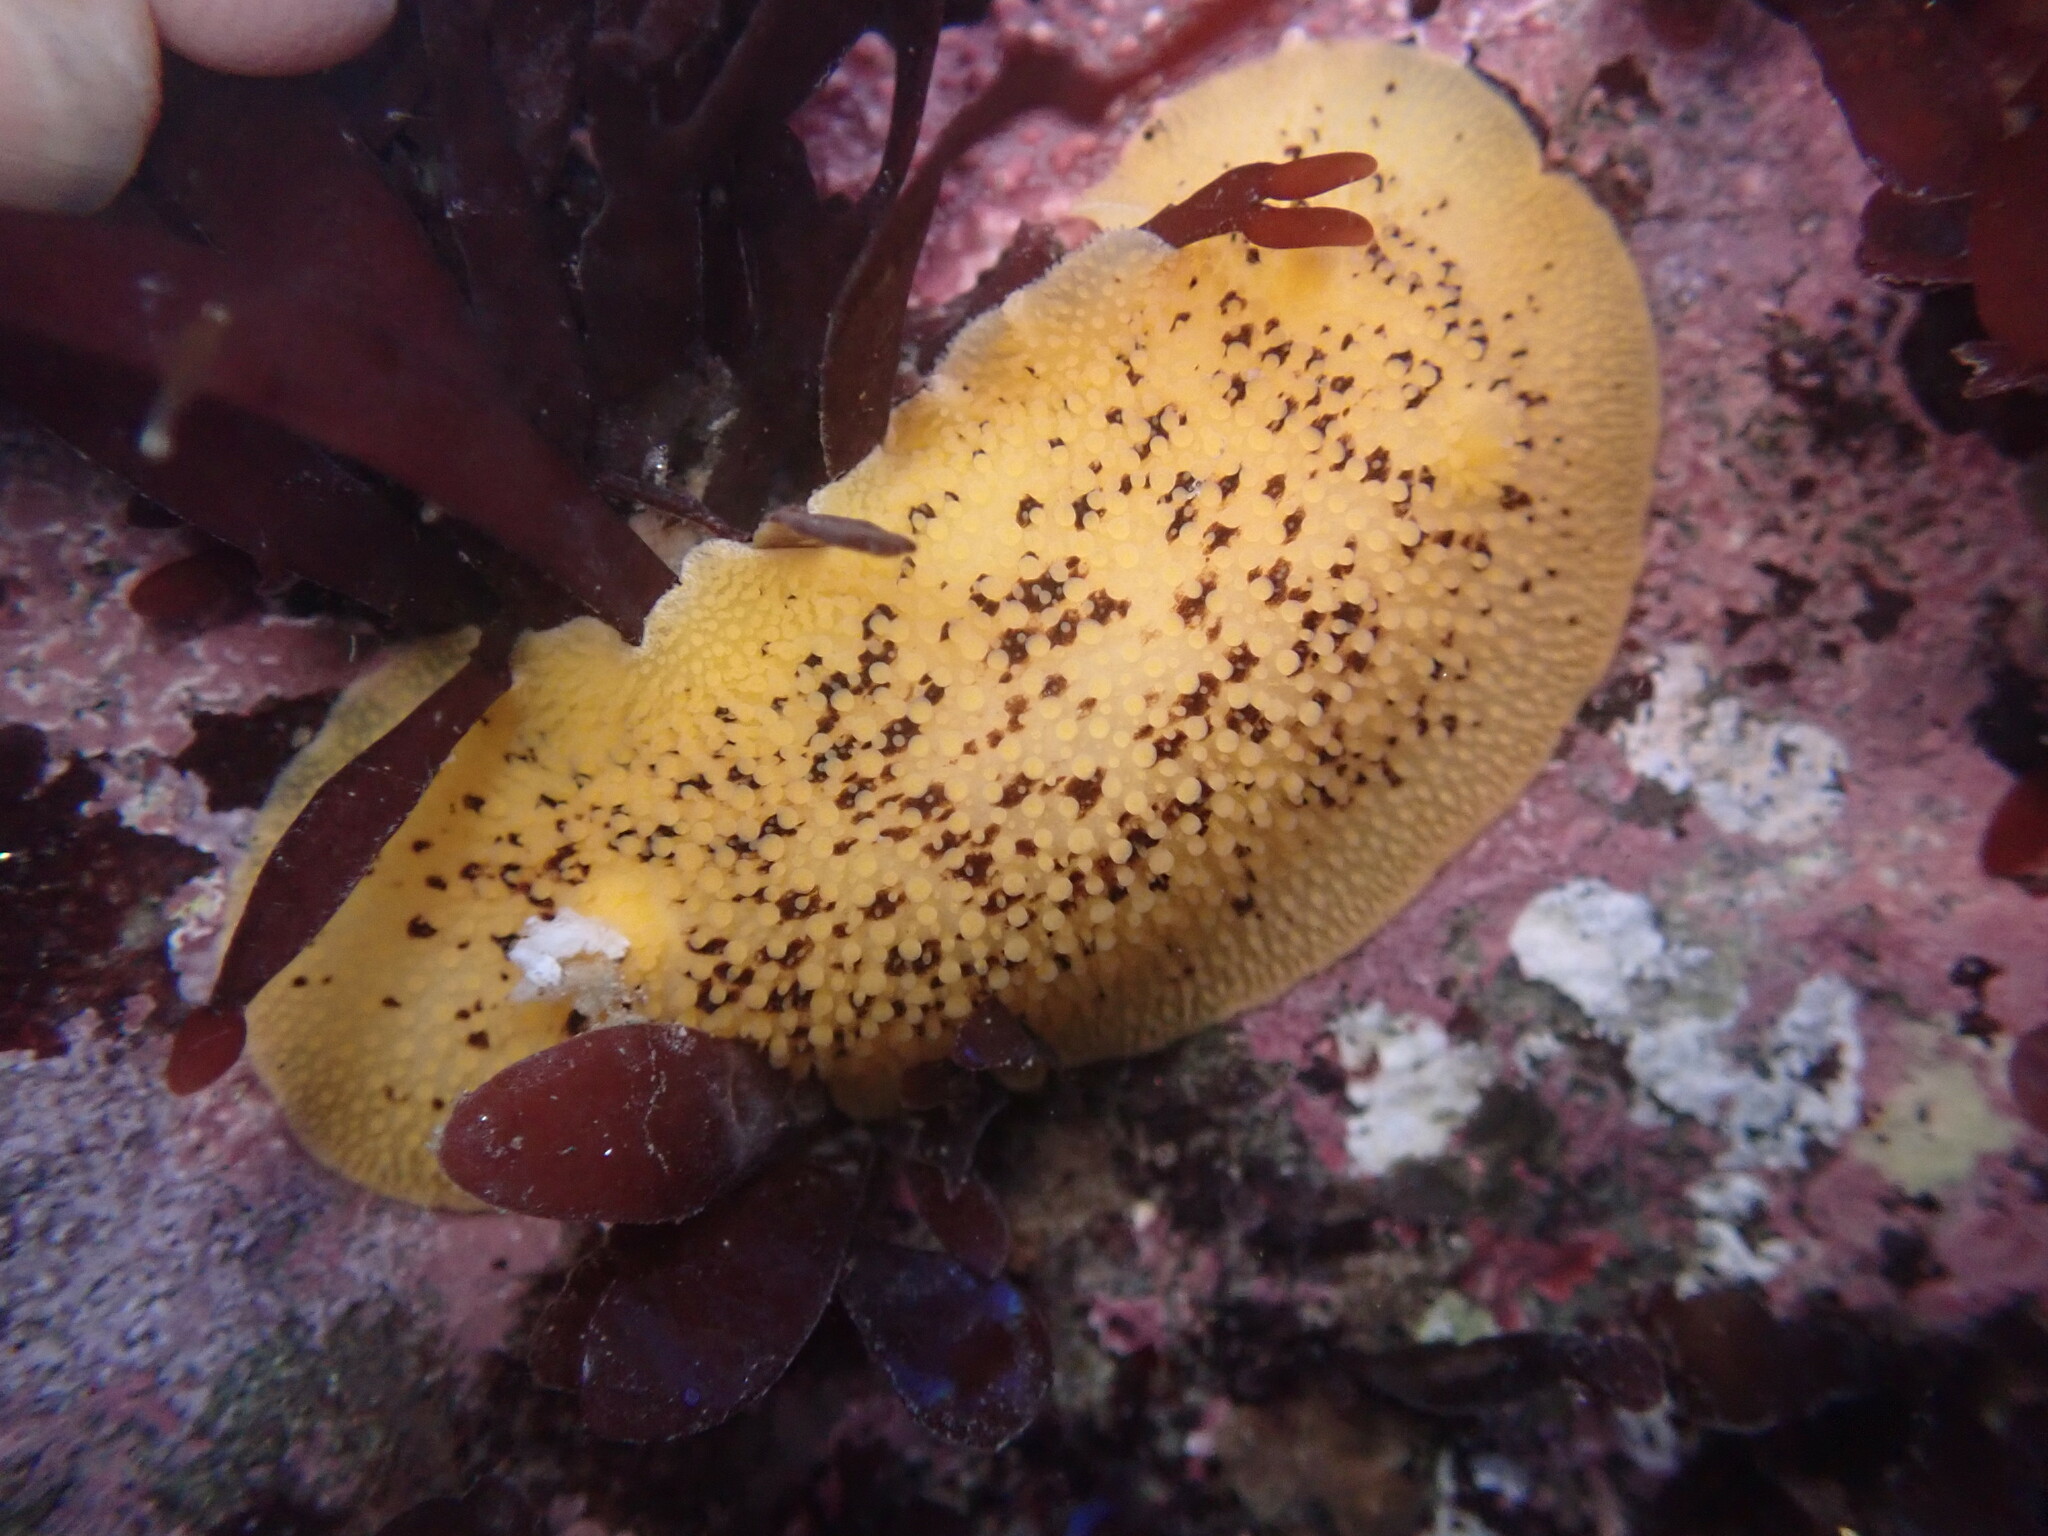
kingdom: Animalia
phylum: Mollusca
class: Gastropoda
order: Nudibranchia
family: Discodorididae
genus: Peltodoris
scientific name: Peltodoris nobilis
